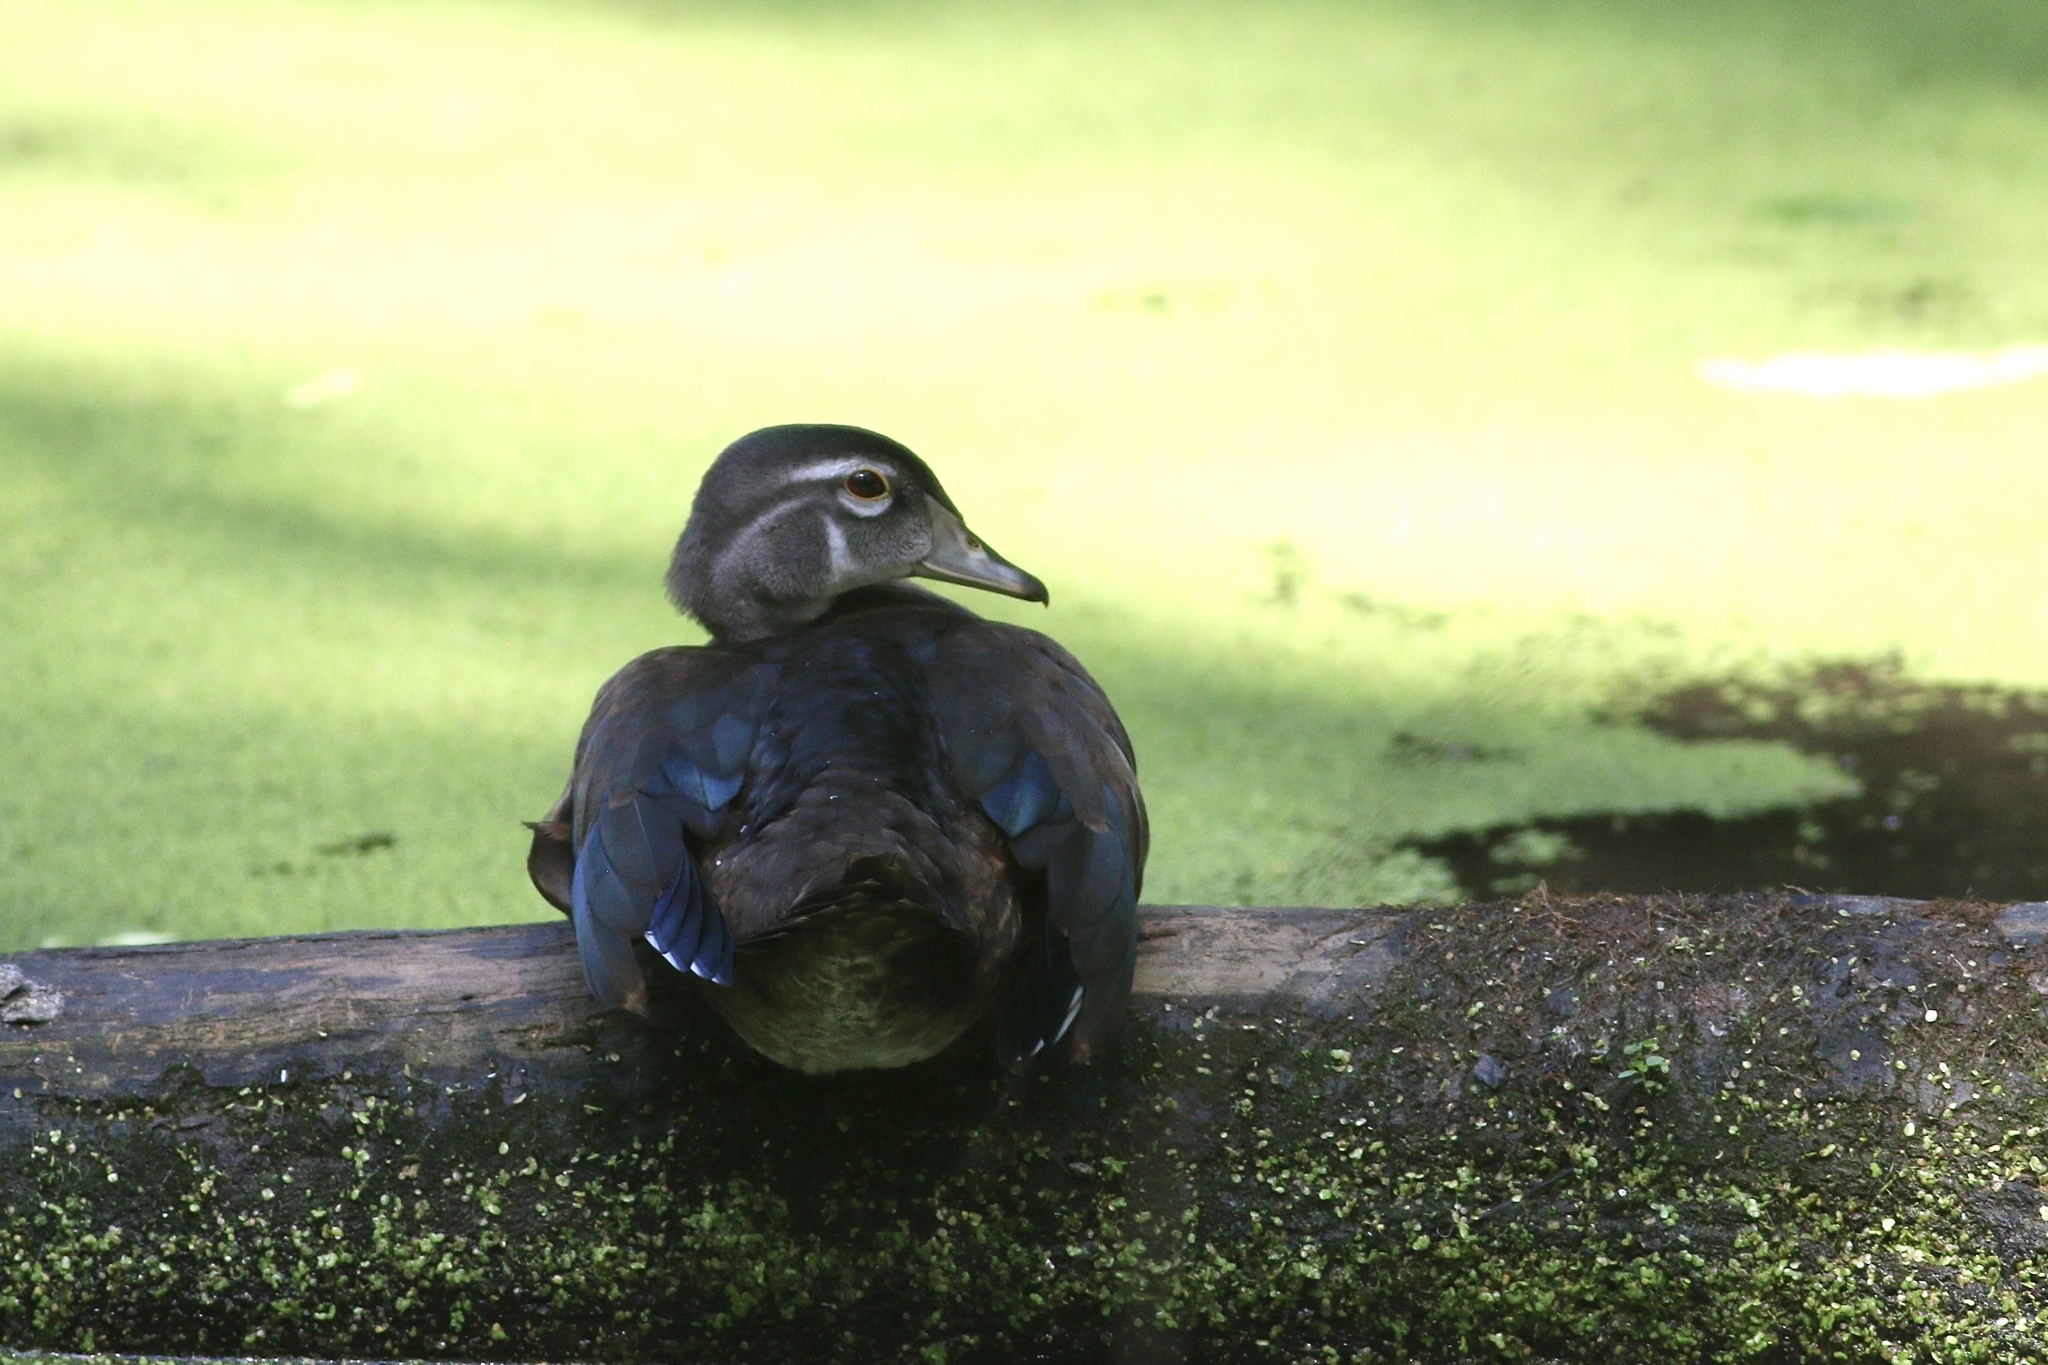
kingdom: Animalia
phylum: Chordata
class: Aves
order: Anseriformes
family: Anatidae
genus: Aix
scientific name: Aix sponsa
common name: Wood duck
